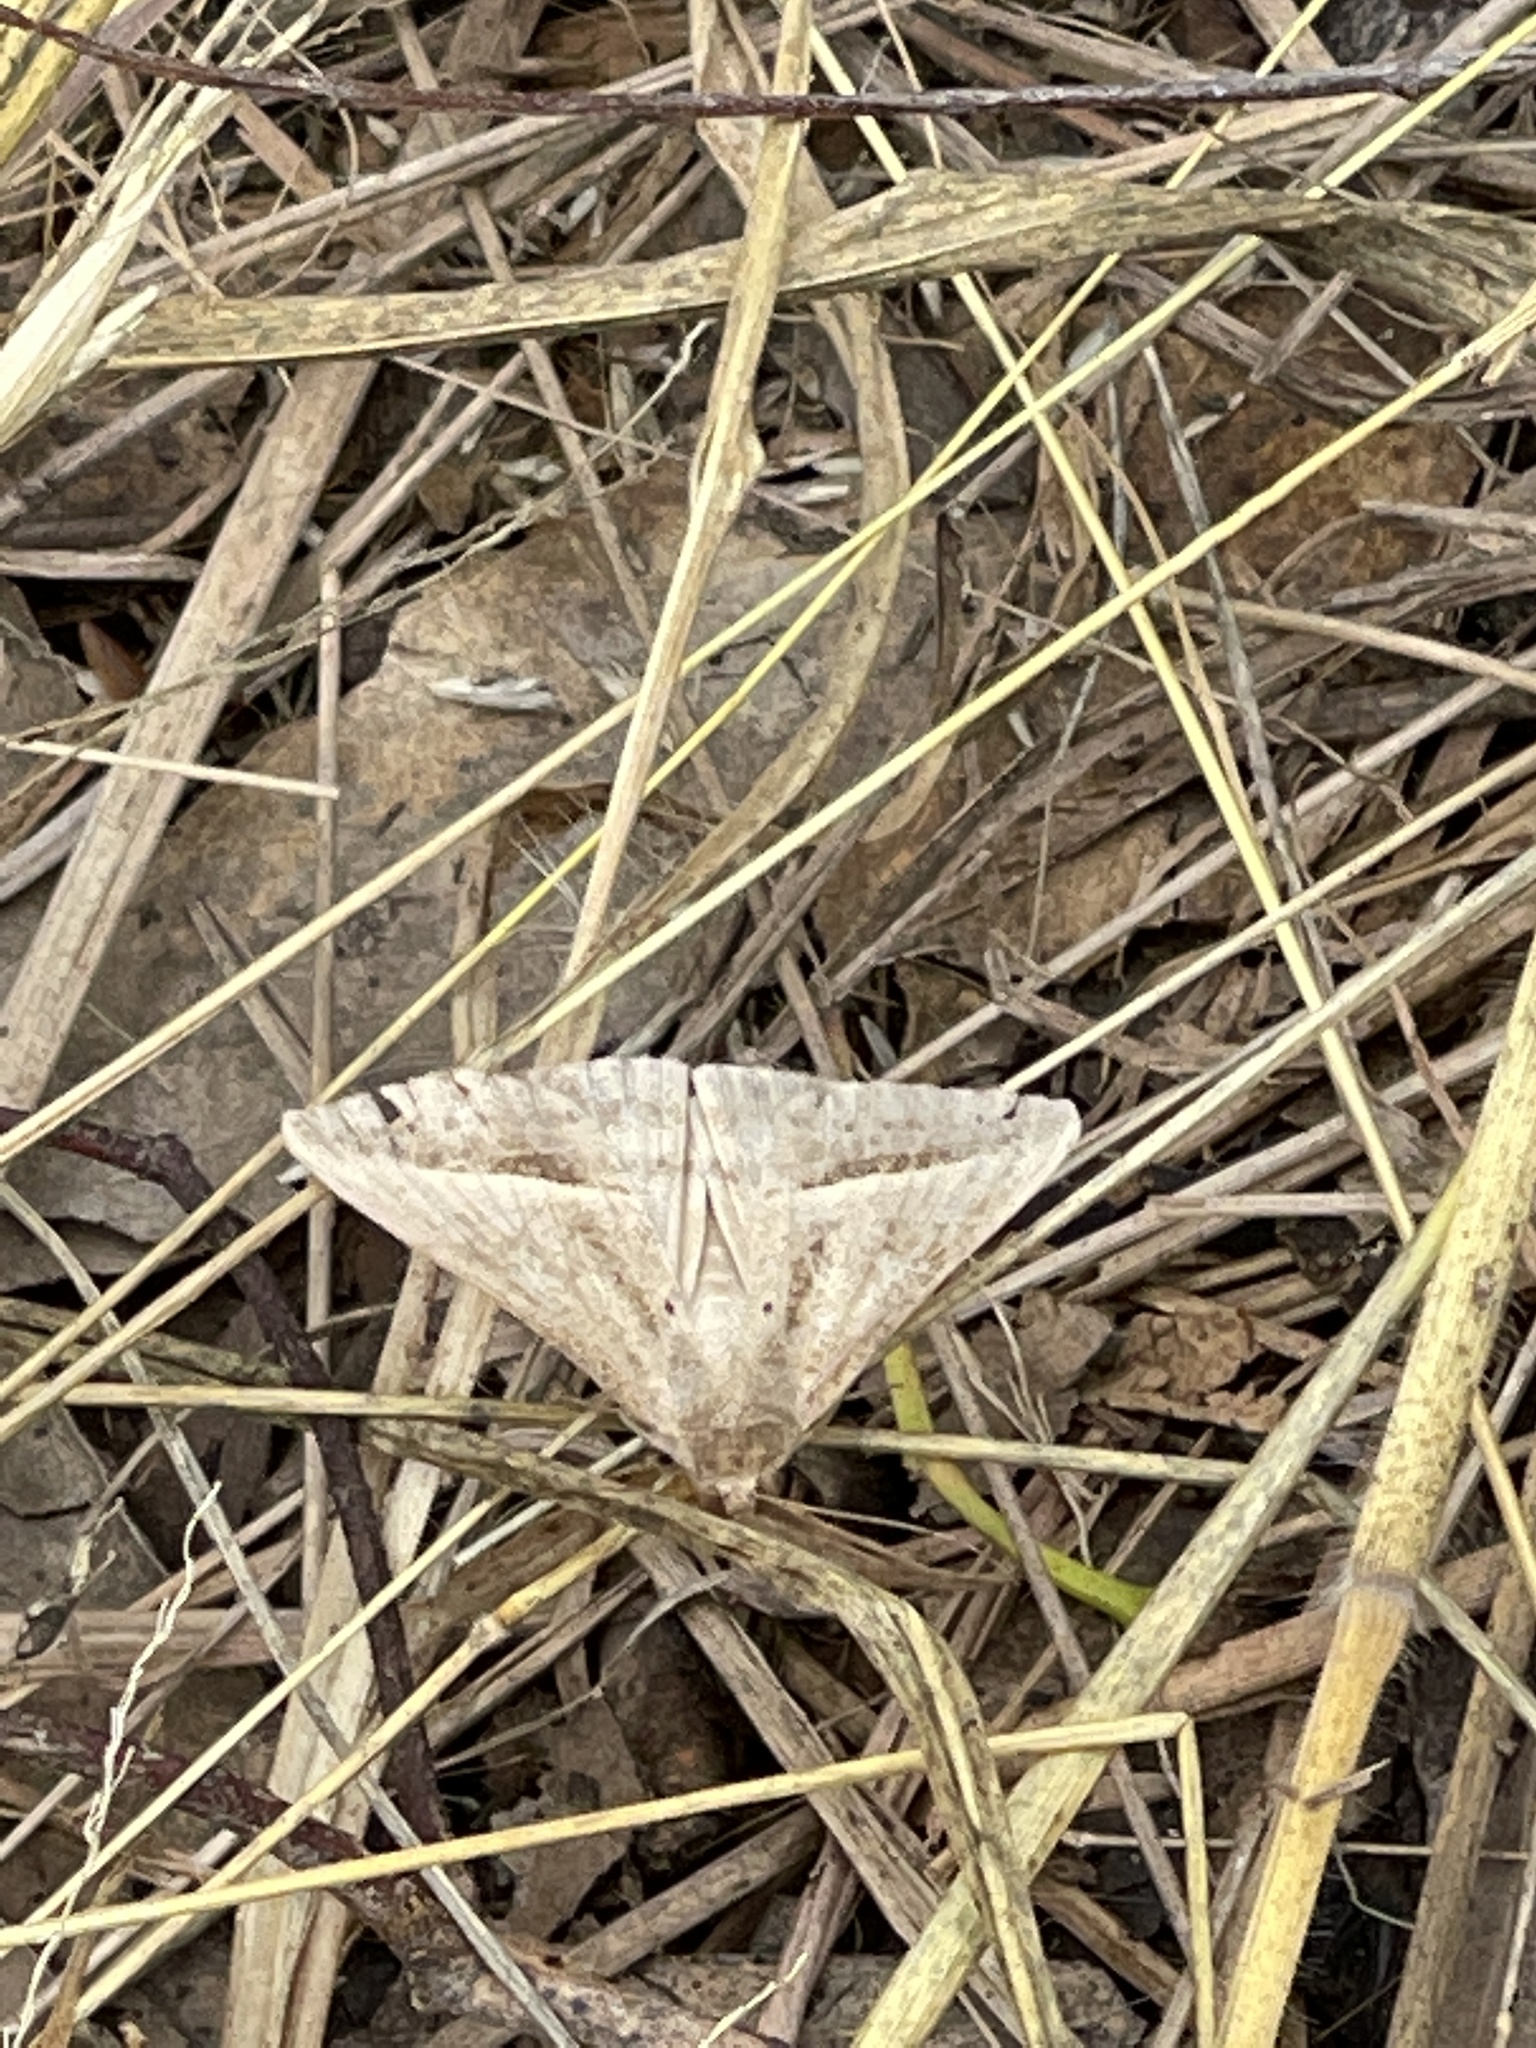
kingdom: Animalia
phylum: Arthropoda
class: Insecta
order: Lepidoptera
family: Erebidae
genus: Mocis
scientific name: Mocis frugalis
